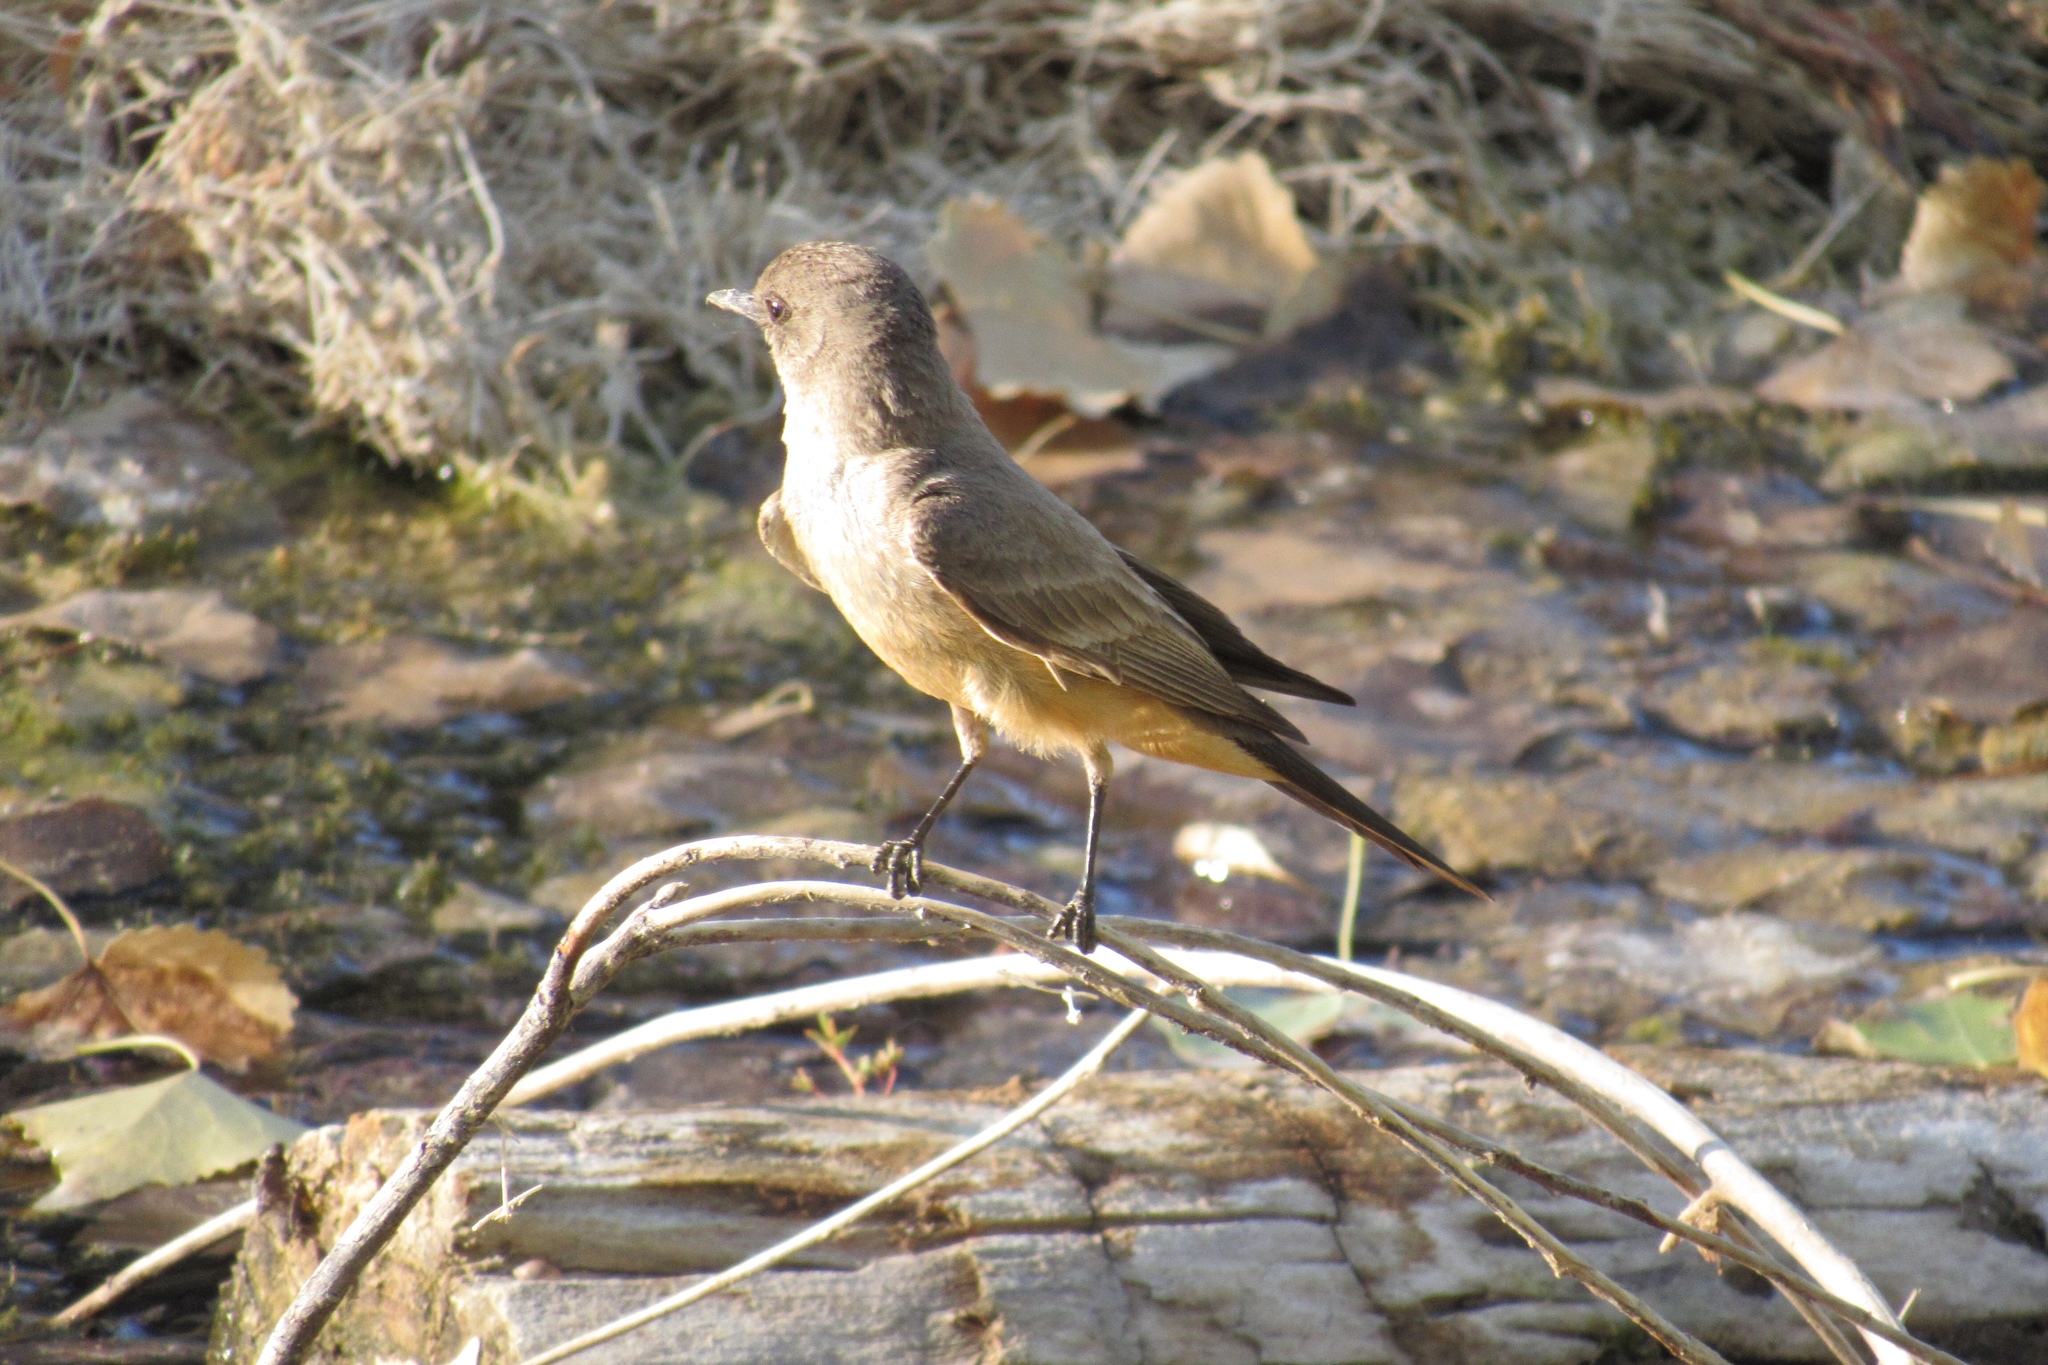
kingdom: Animalia
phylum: Chordata
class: Aves
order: Passeriformes
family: Tyrannidae
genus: Sayornis
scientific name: Sayornis saya
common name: Say's phoebe
